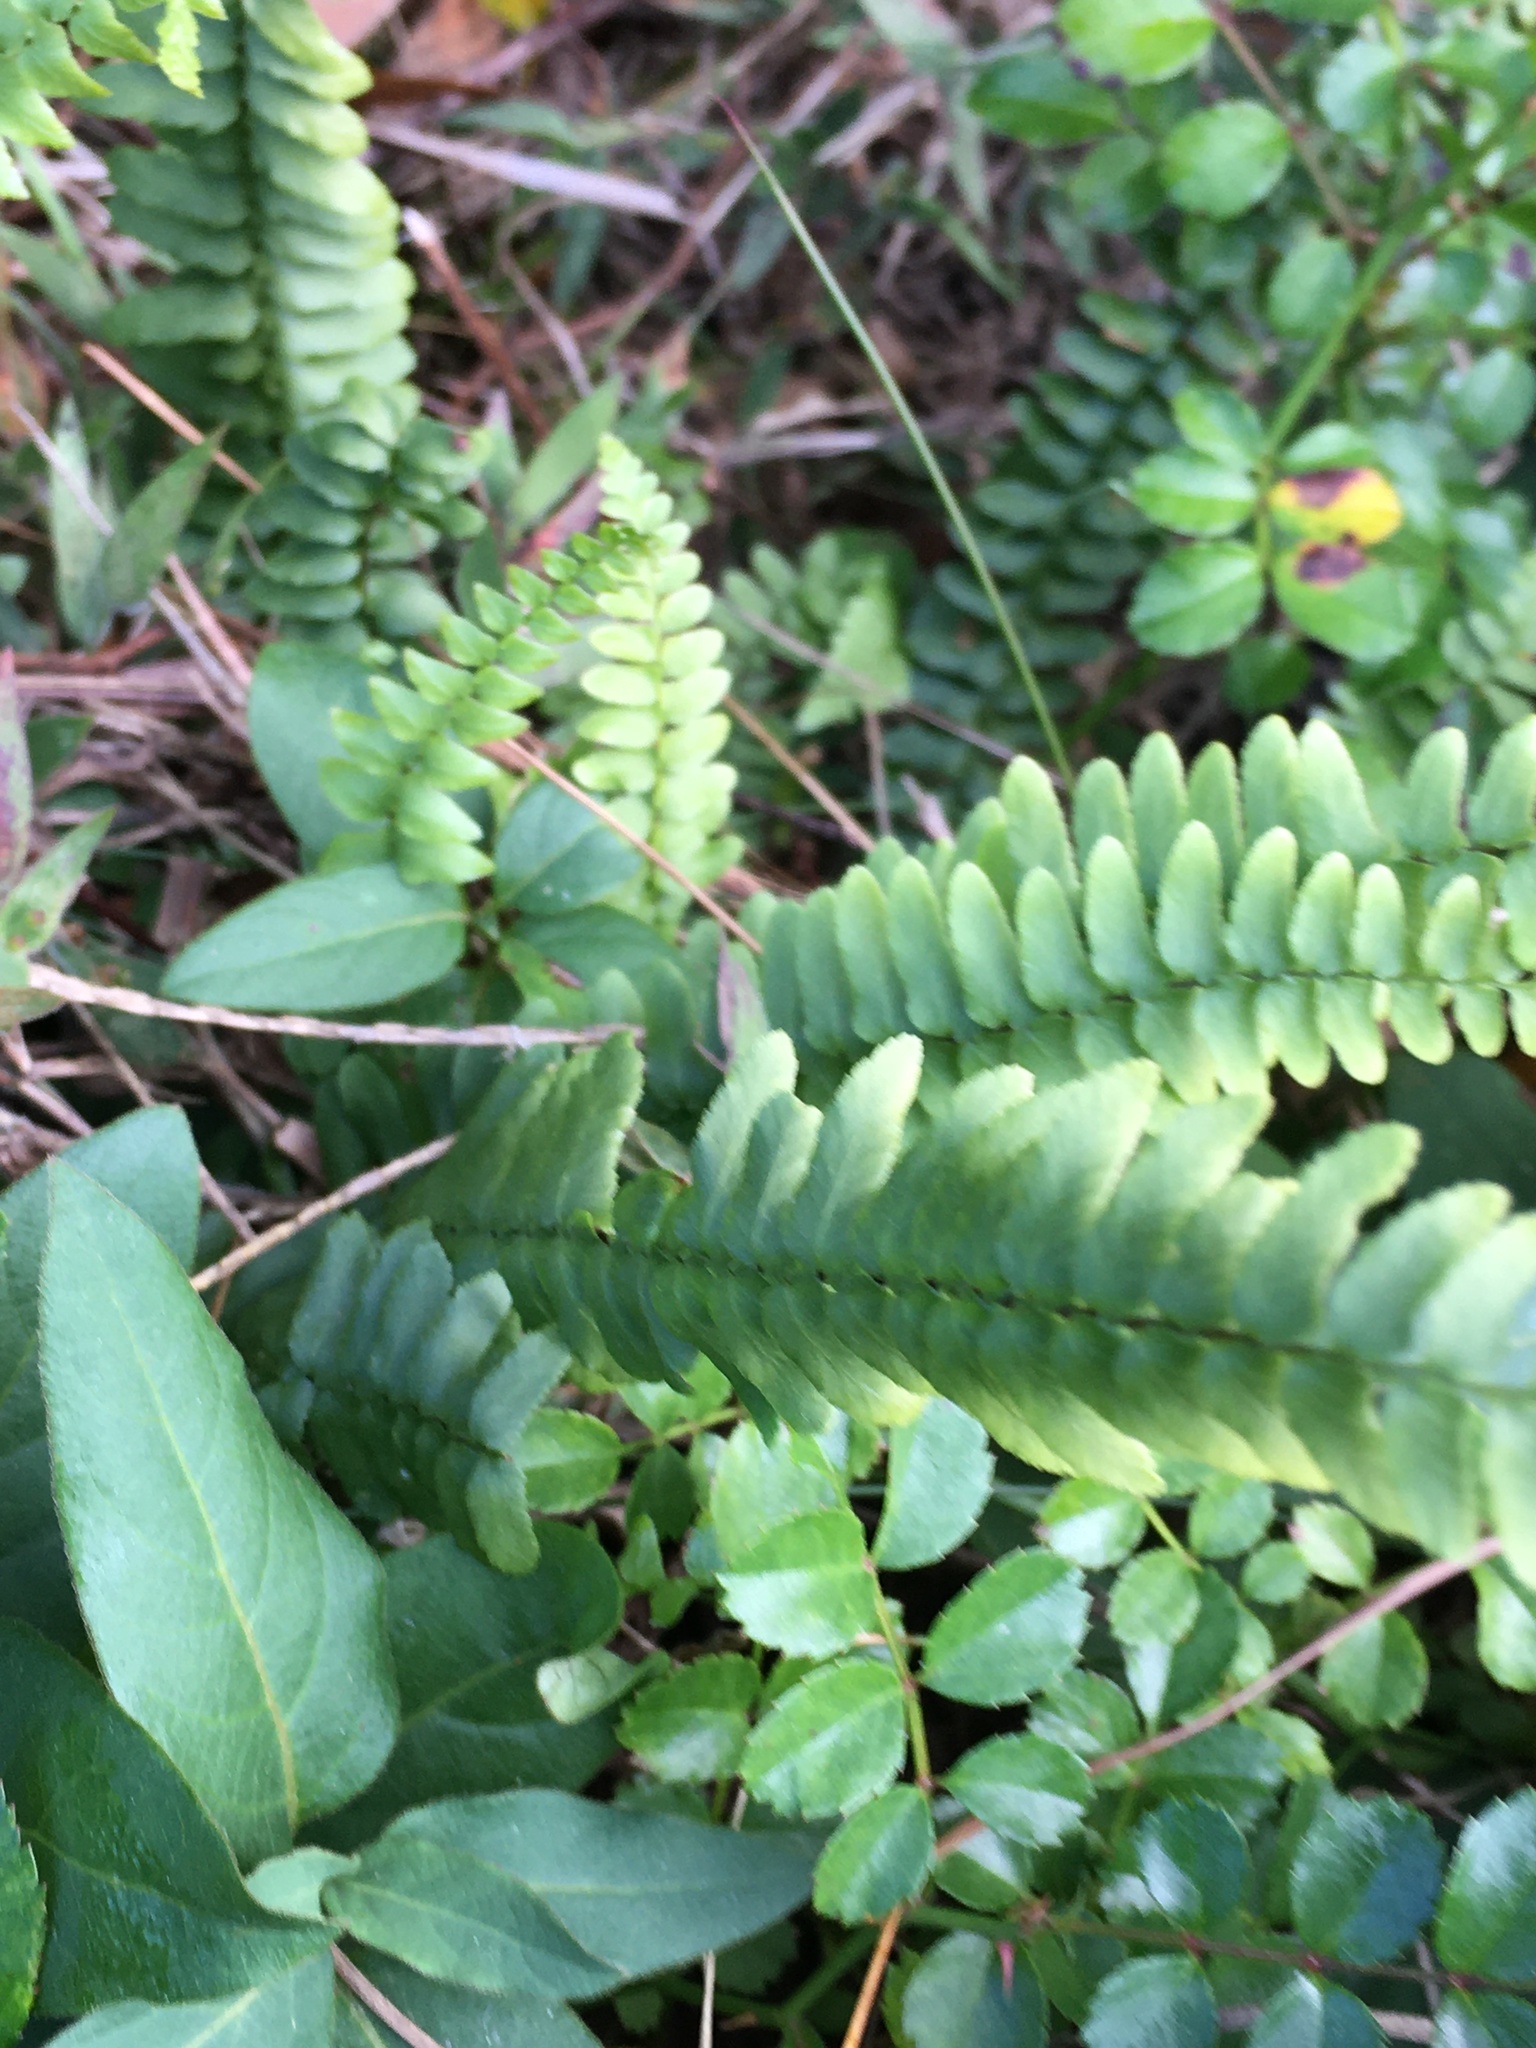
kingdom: Plantae
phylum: Tracheophyta
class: Polypodiopsida
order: Polypodiales
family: Aspleniaceae
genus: Asplenium
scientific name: Asplenium platyneuron
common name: Ebony spleenwort
